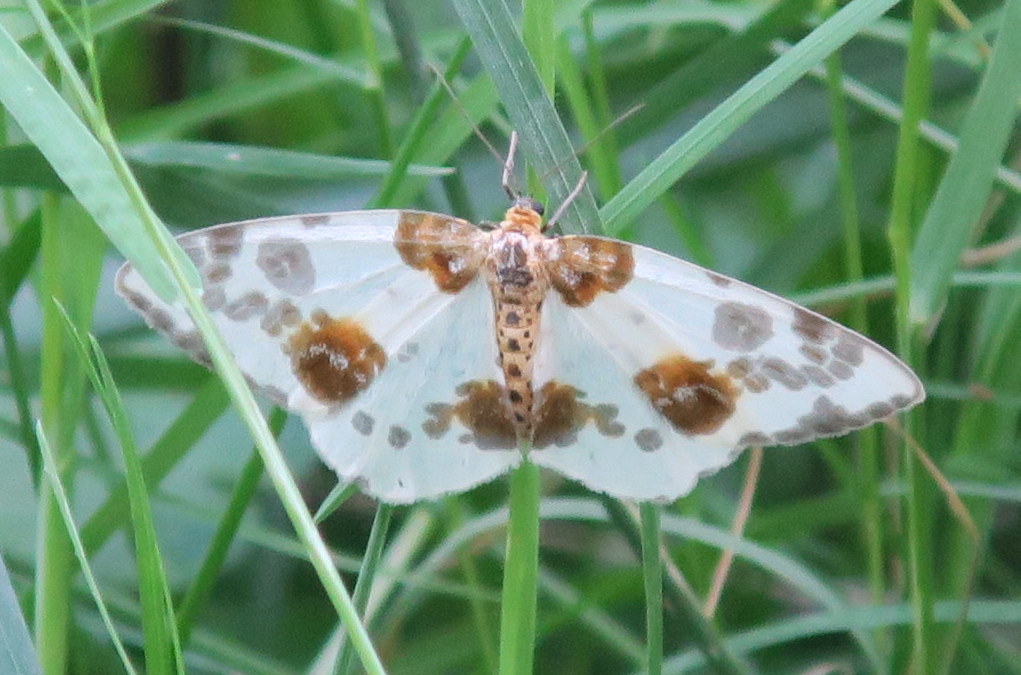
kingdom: Animalia
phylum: Arthropoda
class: Insecta
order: Lepidoptera
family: Geometridae
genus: Abraxas
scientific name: Abraxas sylvata
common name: Clouded magpie
